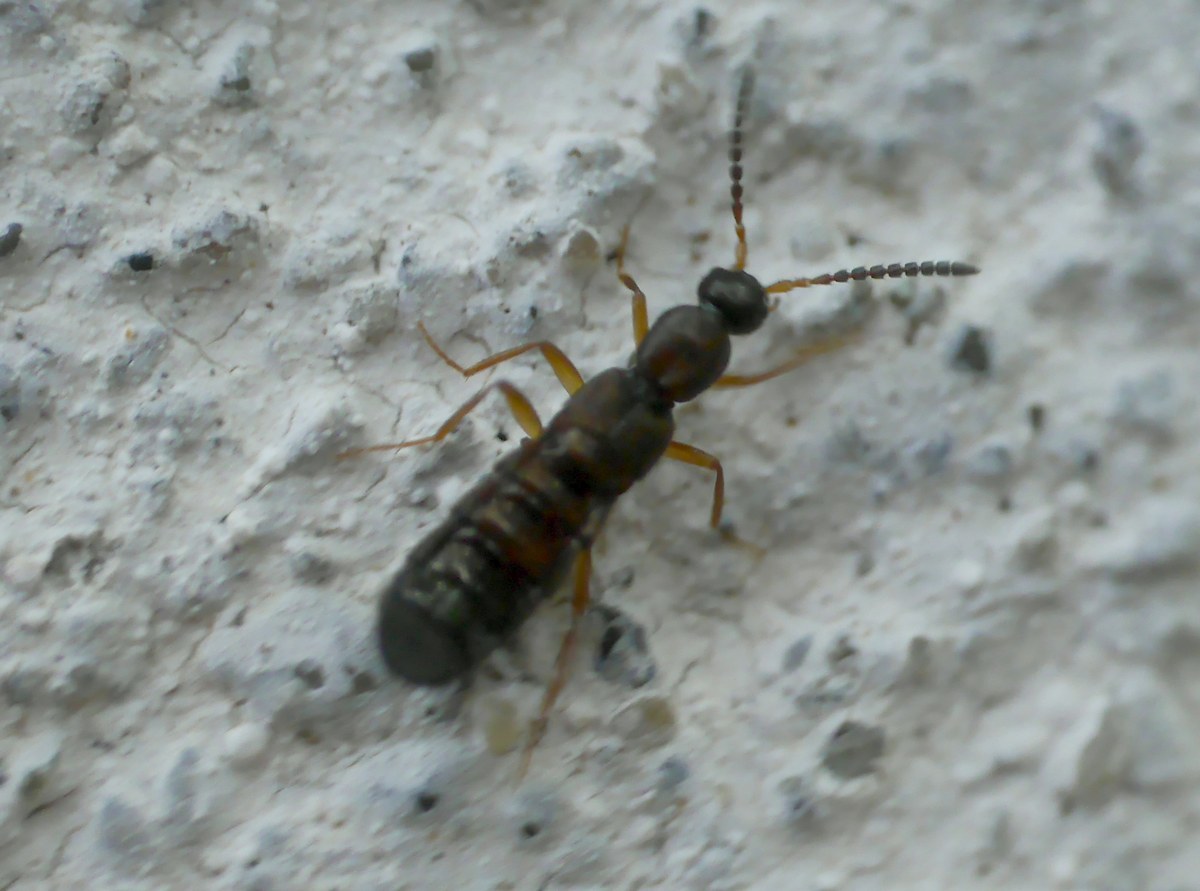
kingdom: Animalia
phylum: Arthropoda
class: Insecta
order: Coleoptera
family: Staphylinidae
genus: Drusilla
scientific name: Drusilla canaliculata
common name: Rove beetle
